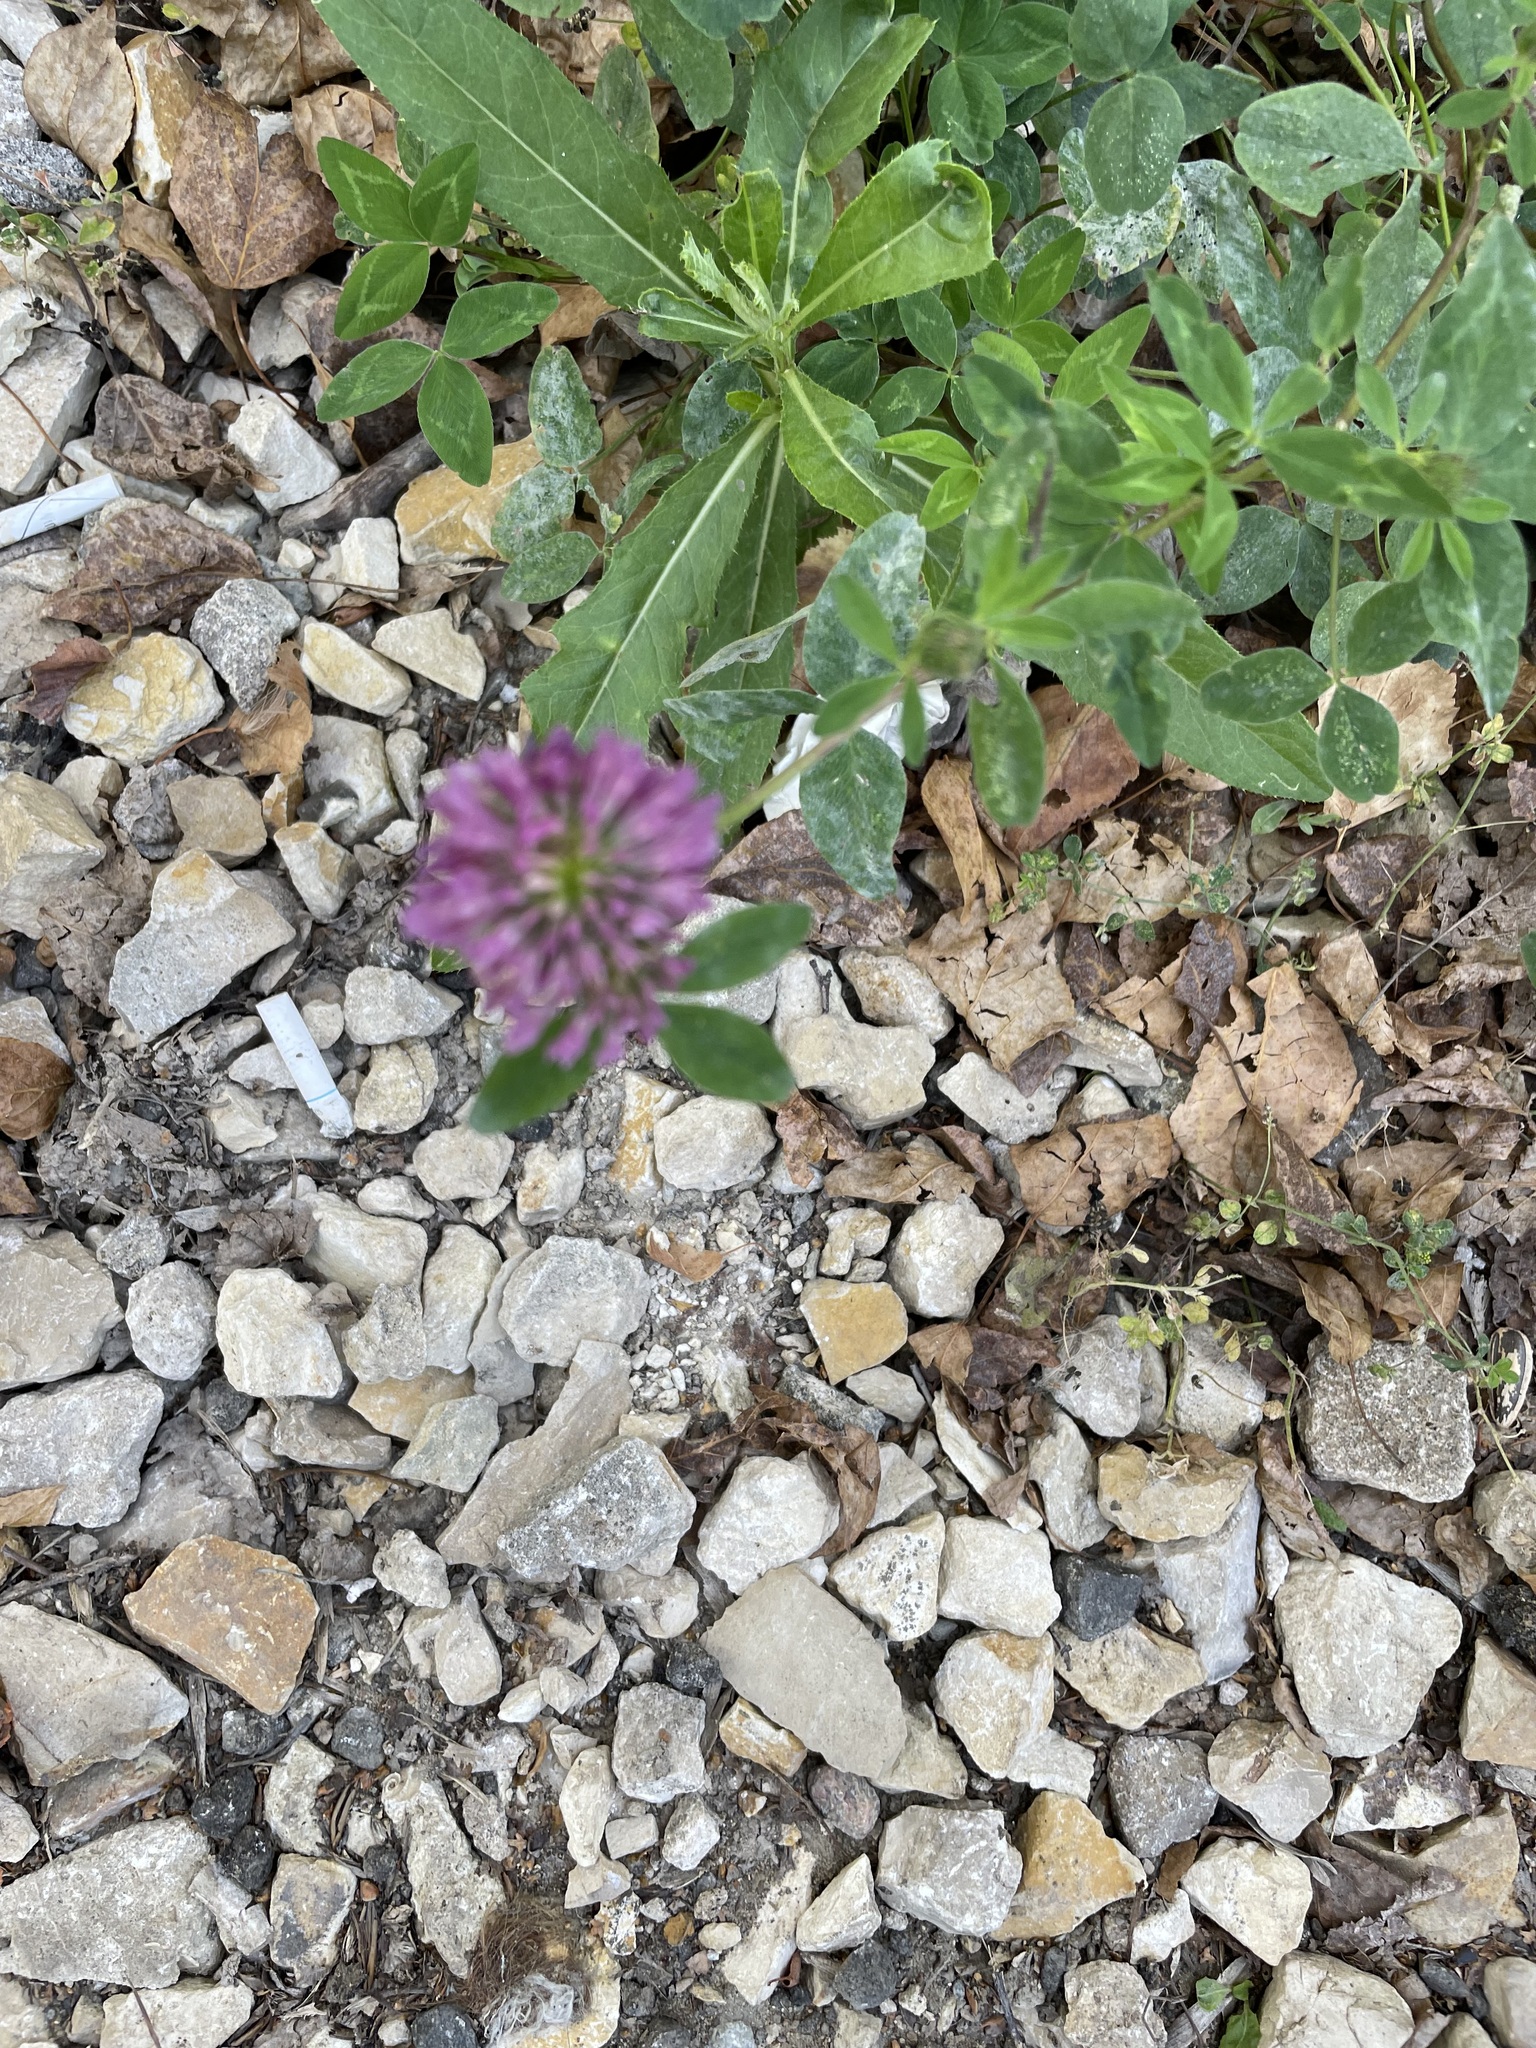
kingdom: Plantae
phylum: Tracheophyta
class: Magnoliopsida
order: Fabales
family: Fabaceae
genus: Trifolium
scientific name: Trifolium pratense
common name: Red clover
